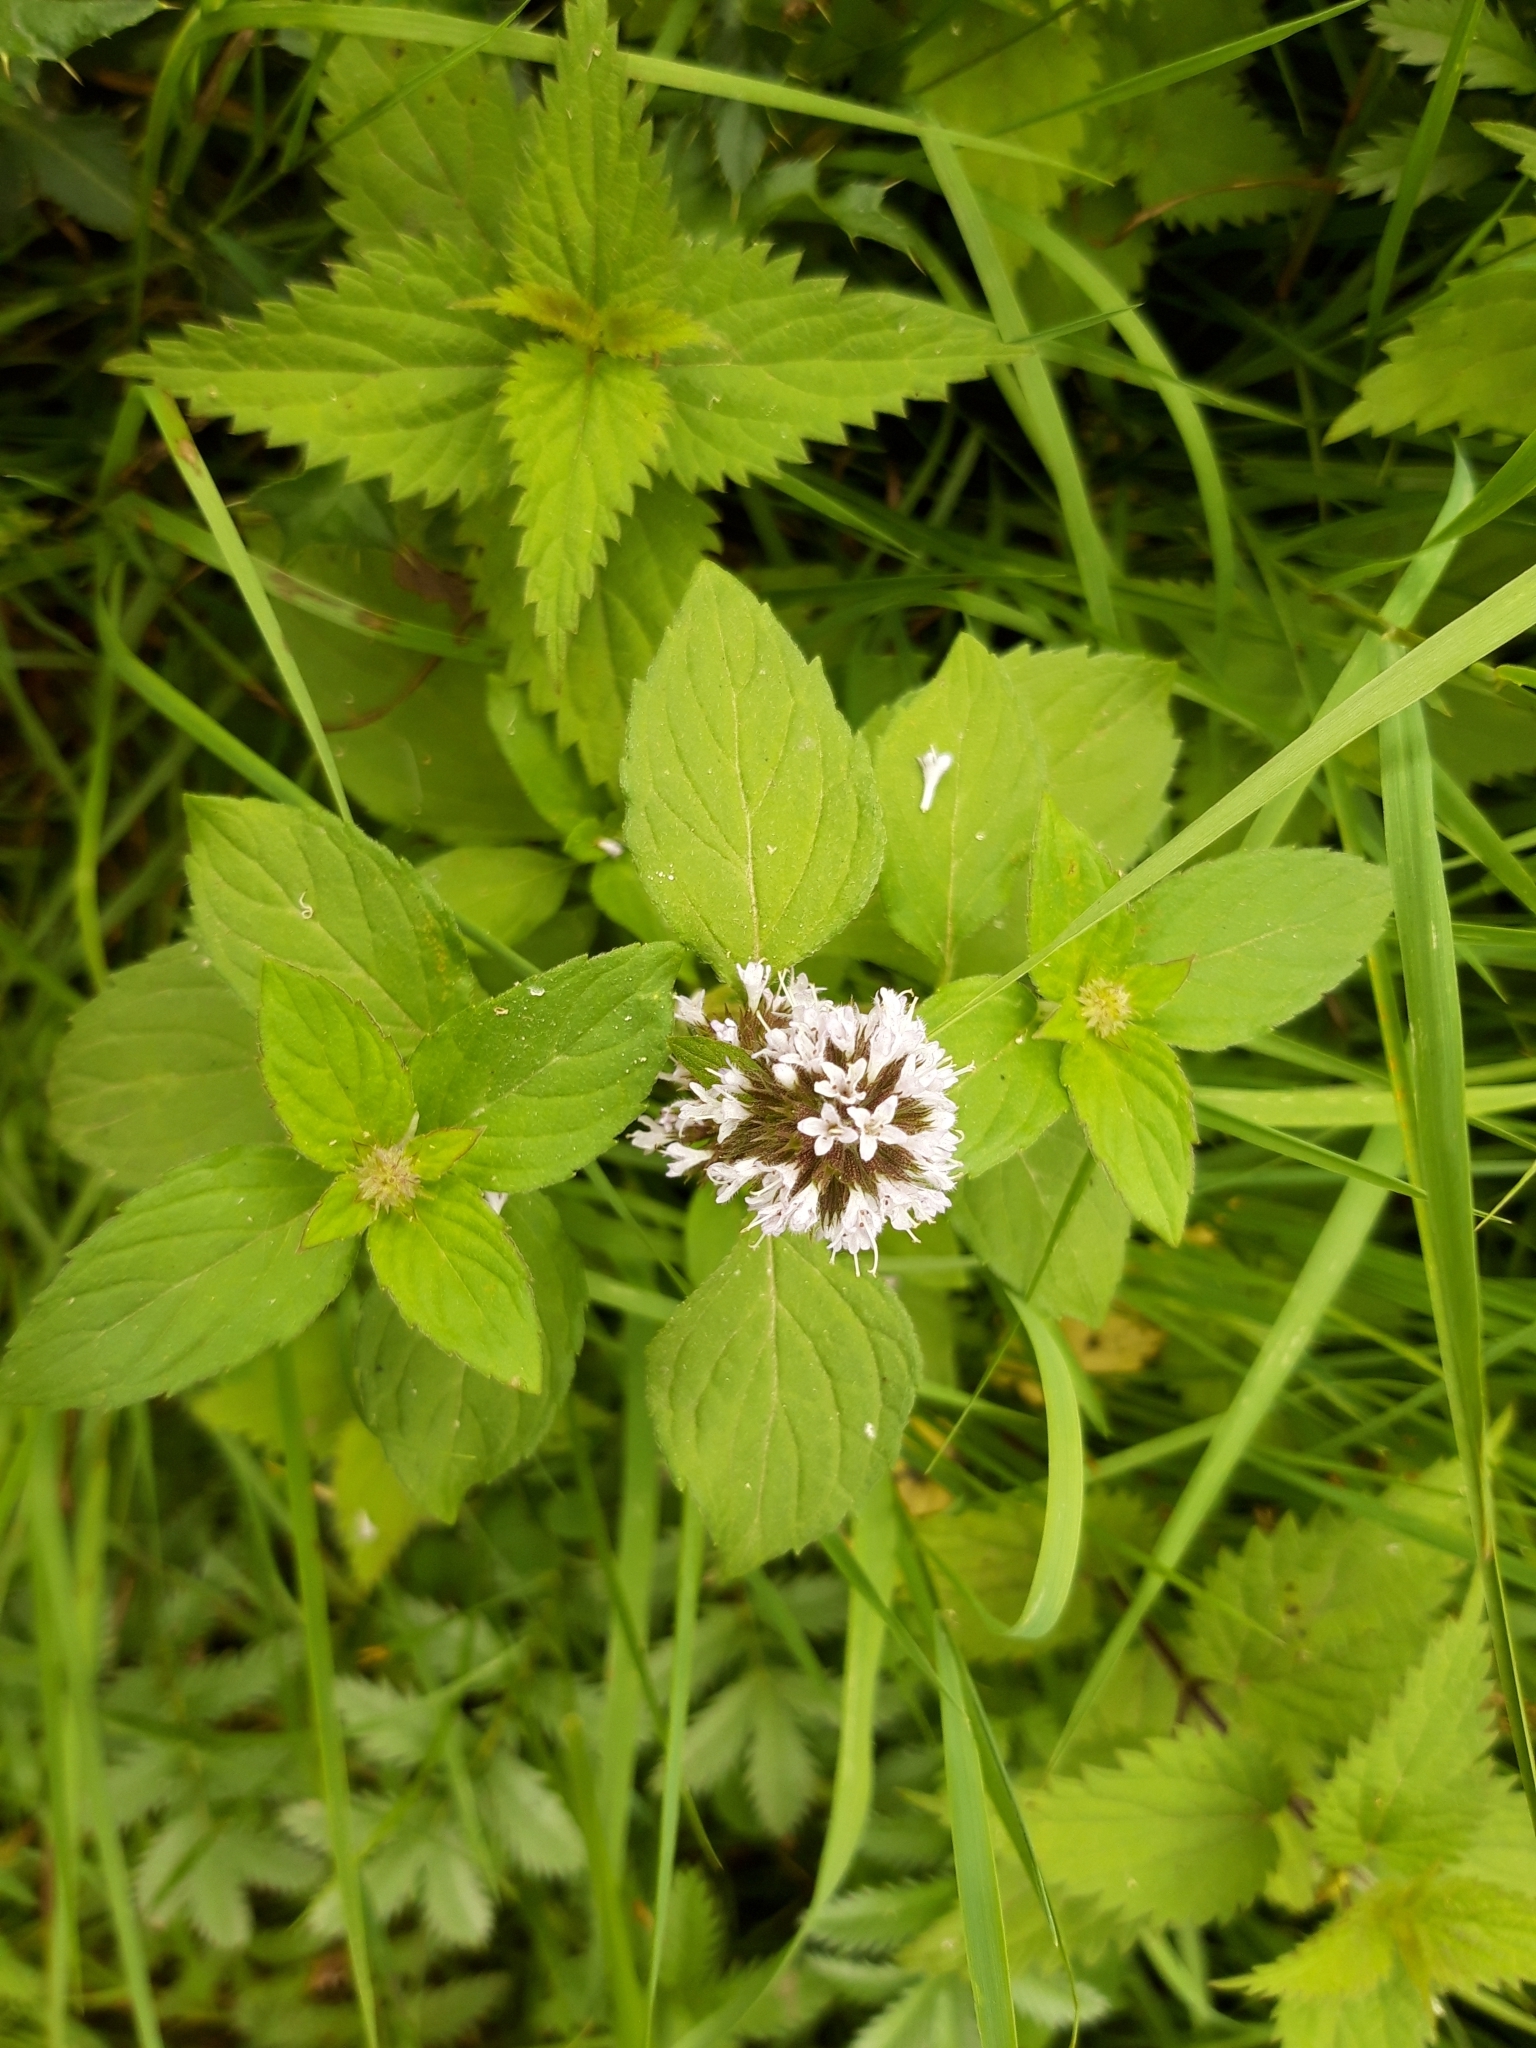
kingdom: Plantae
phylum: Tracheophyta
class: Magnoliopsida
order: Lamiales
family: Lamiaceae
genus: Mentha
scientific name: Mentha aquatica
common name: Water mint
